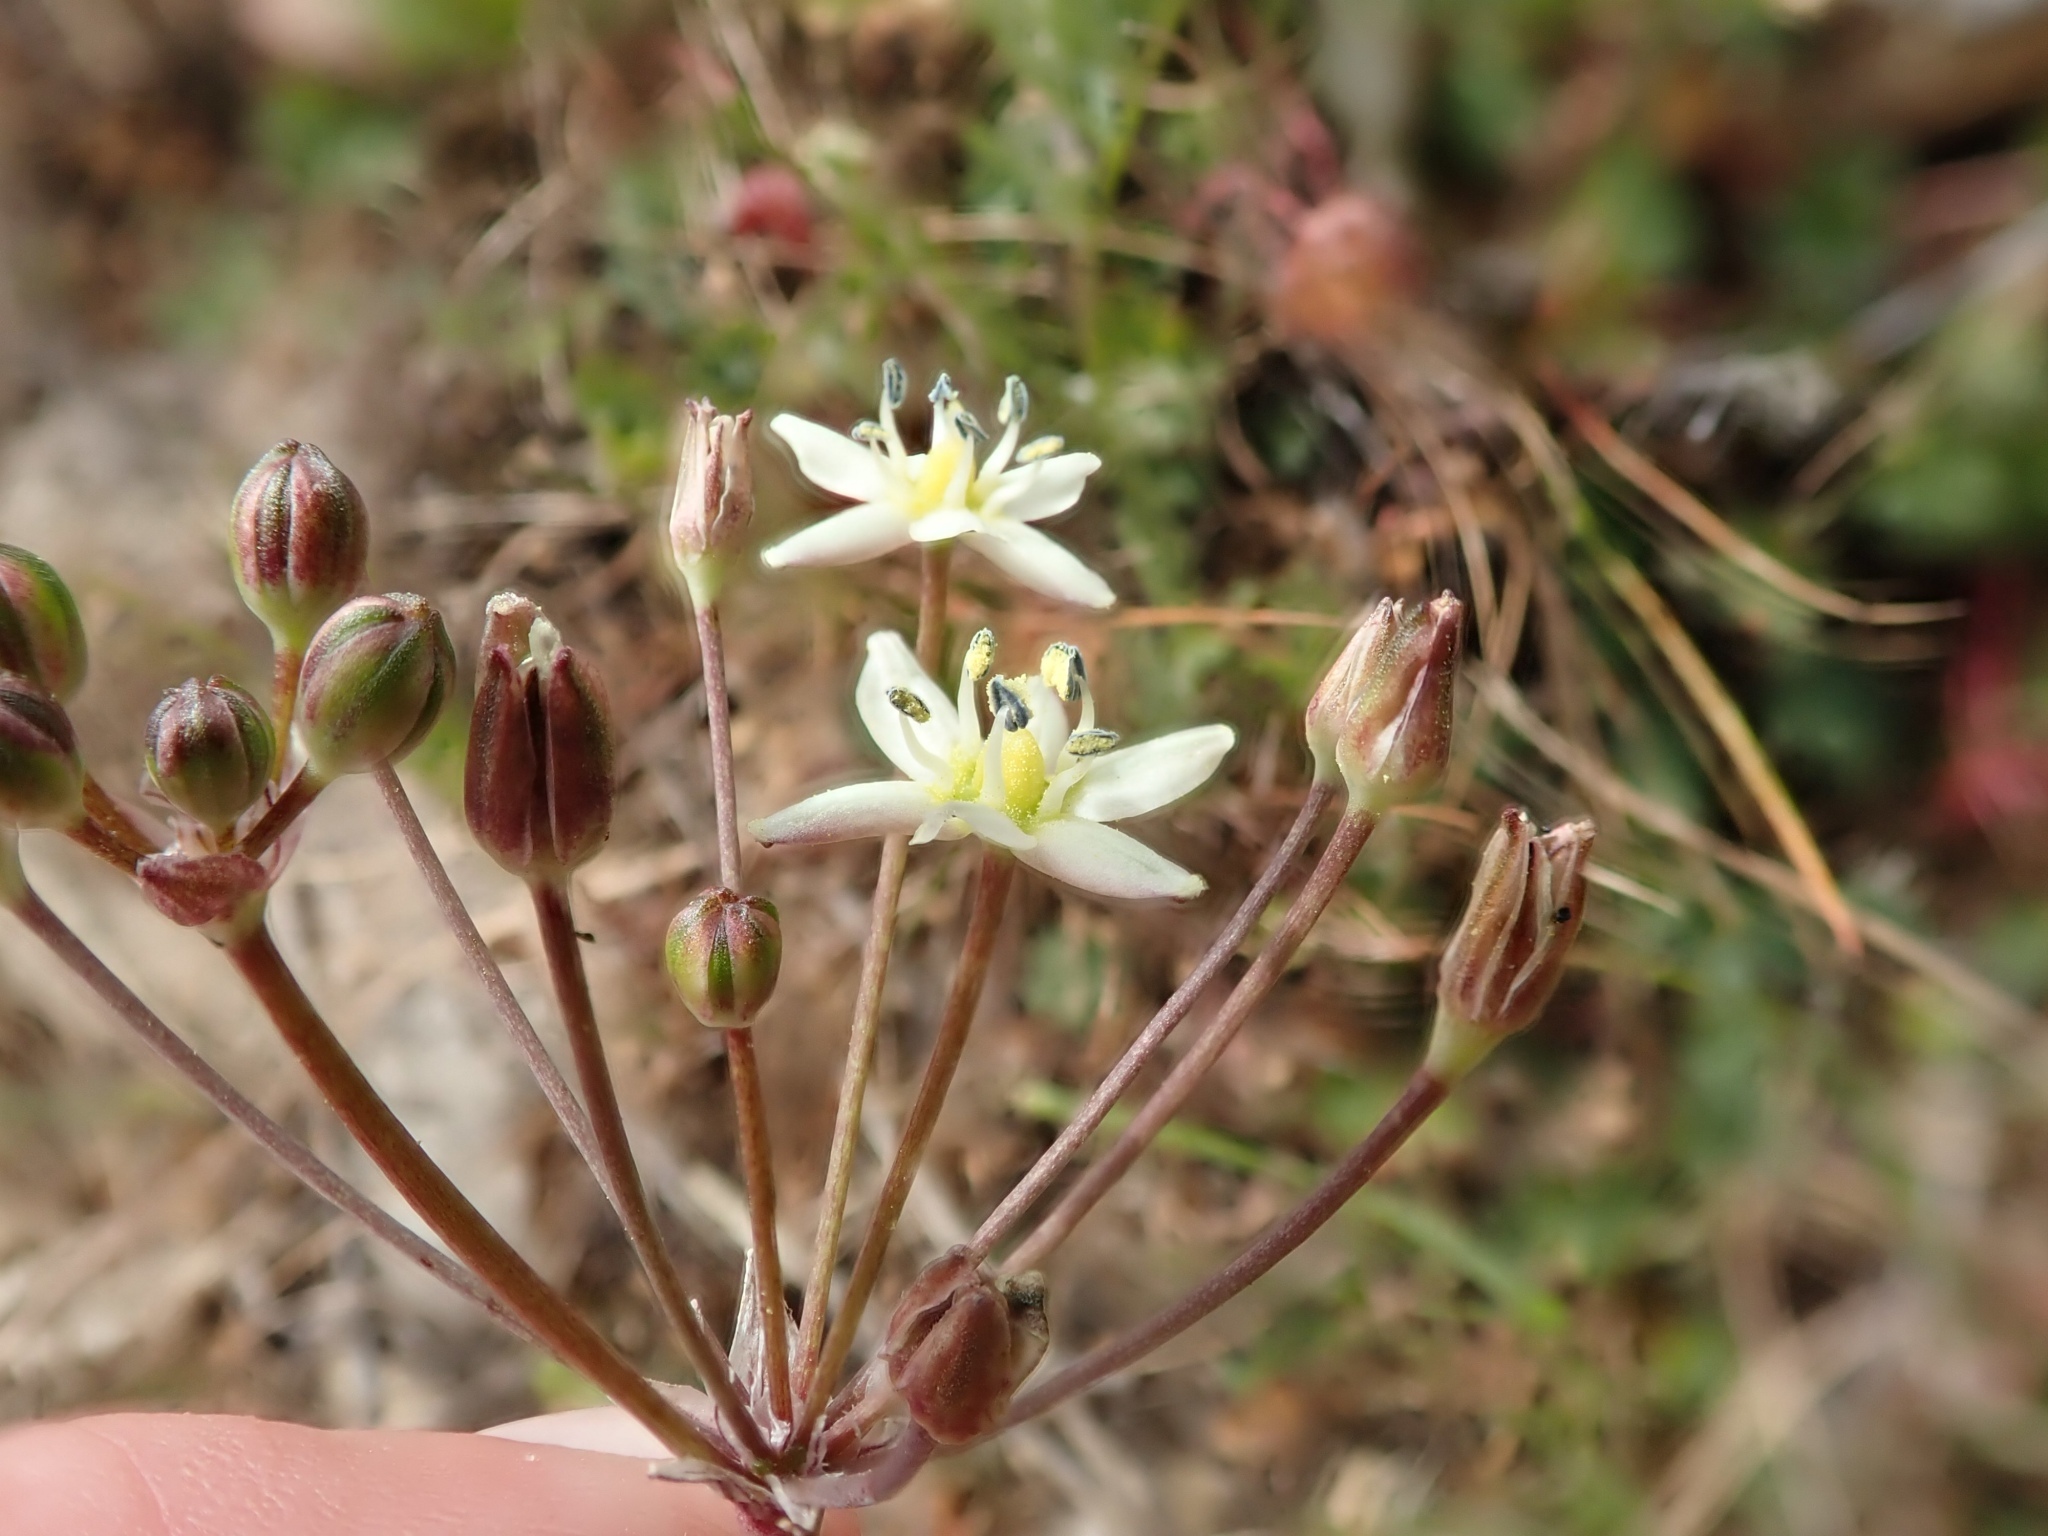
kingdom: Plantae
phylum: Tracheophyta
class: Liliopsida
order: Asparagales
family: Asparagaceae
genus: Muilla
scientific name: Muilla maritima
